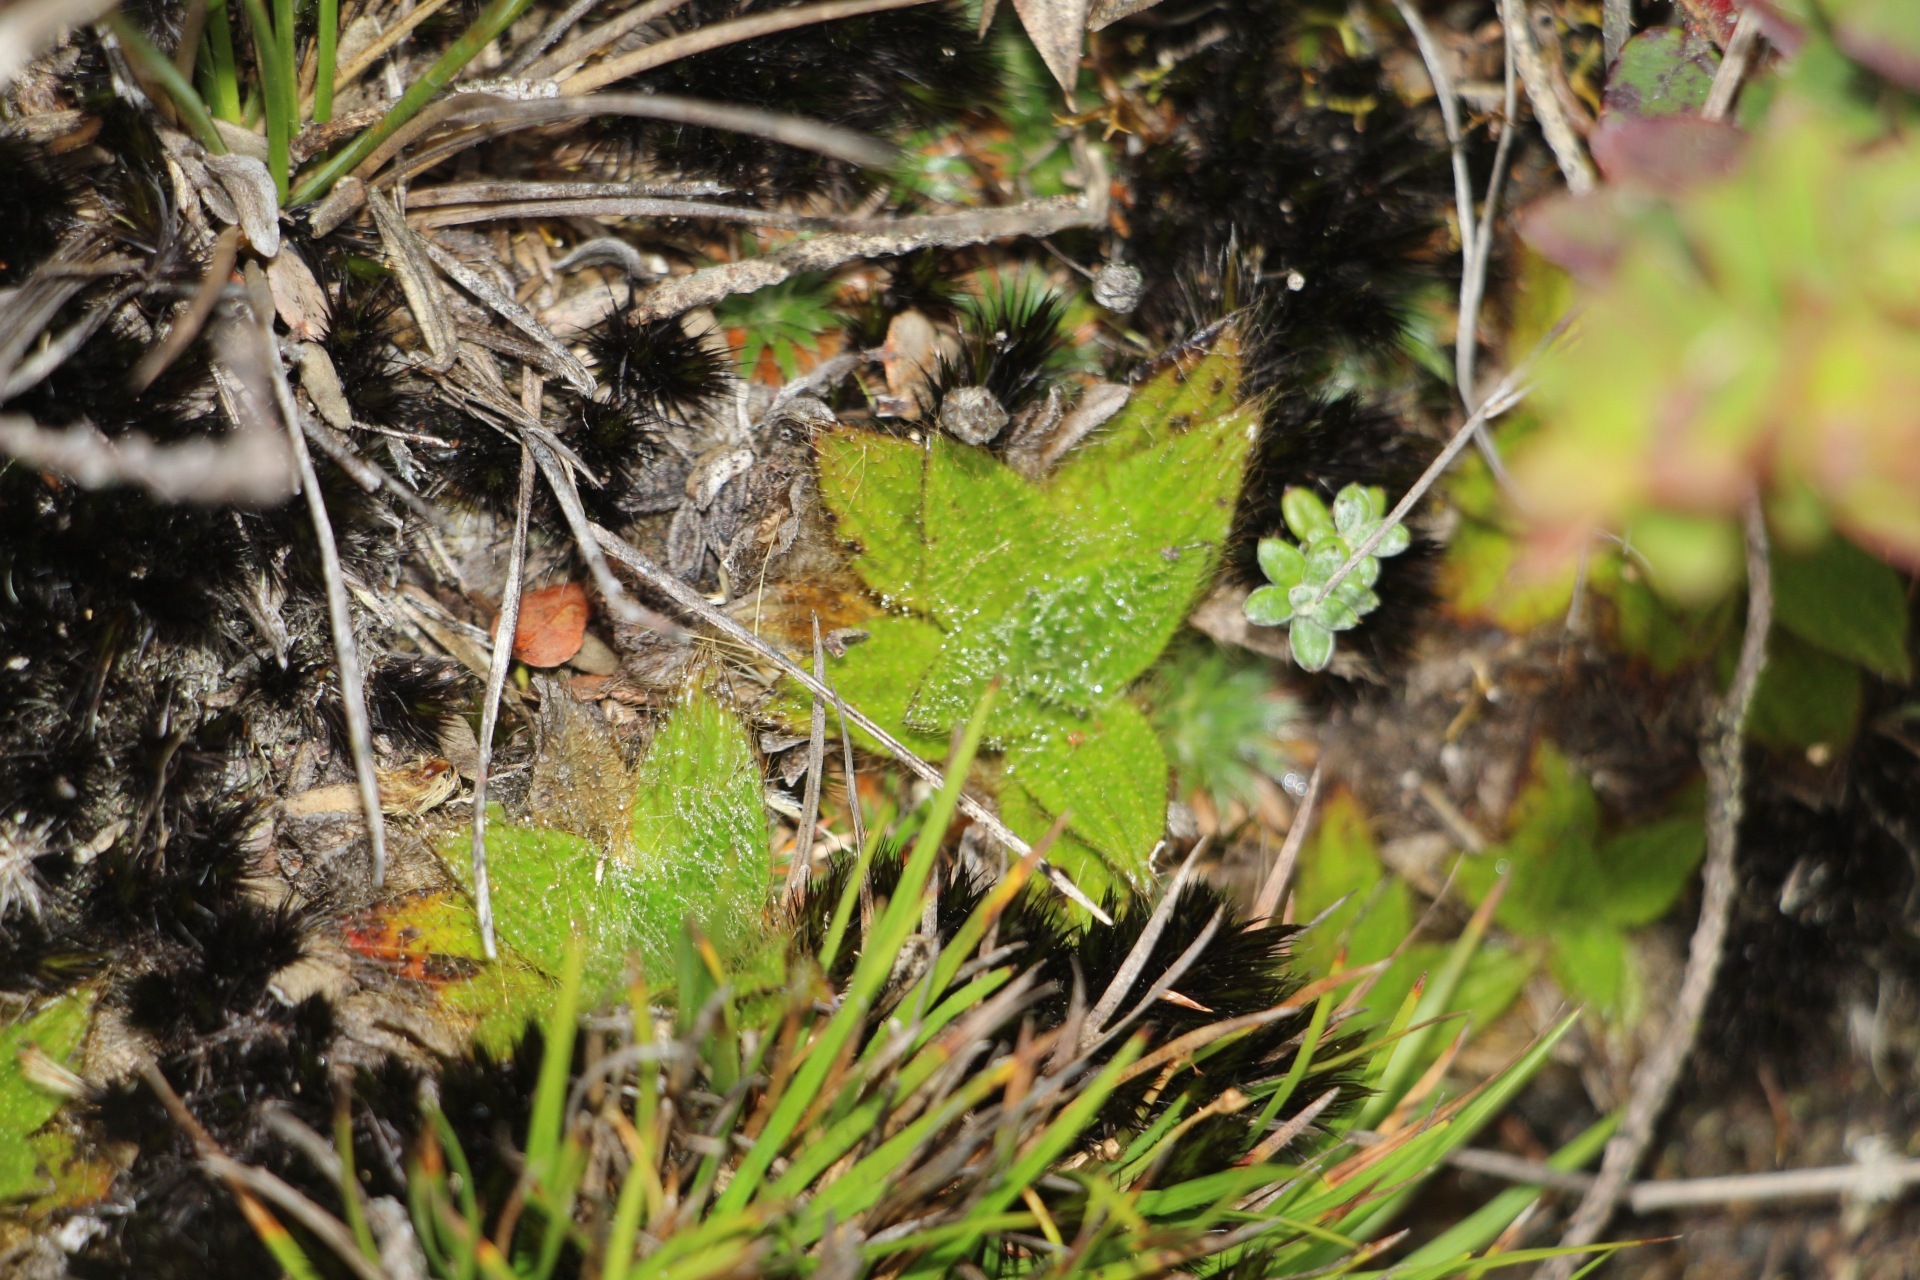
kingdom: Plantae
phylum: Tracheophyta
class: Magnoliopsida
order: Myrtales
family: Melastomataceae
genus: Castratella
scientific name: Castratella piloselloides
